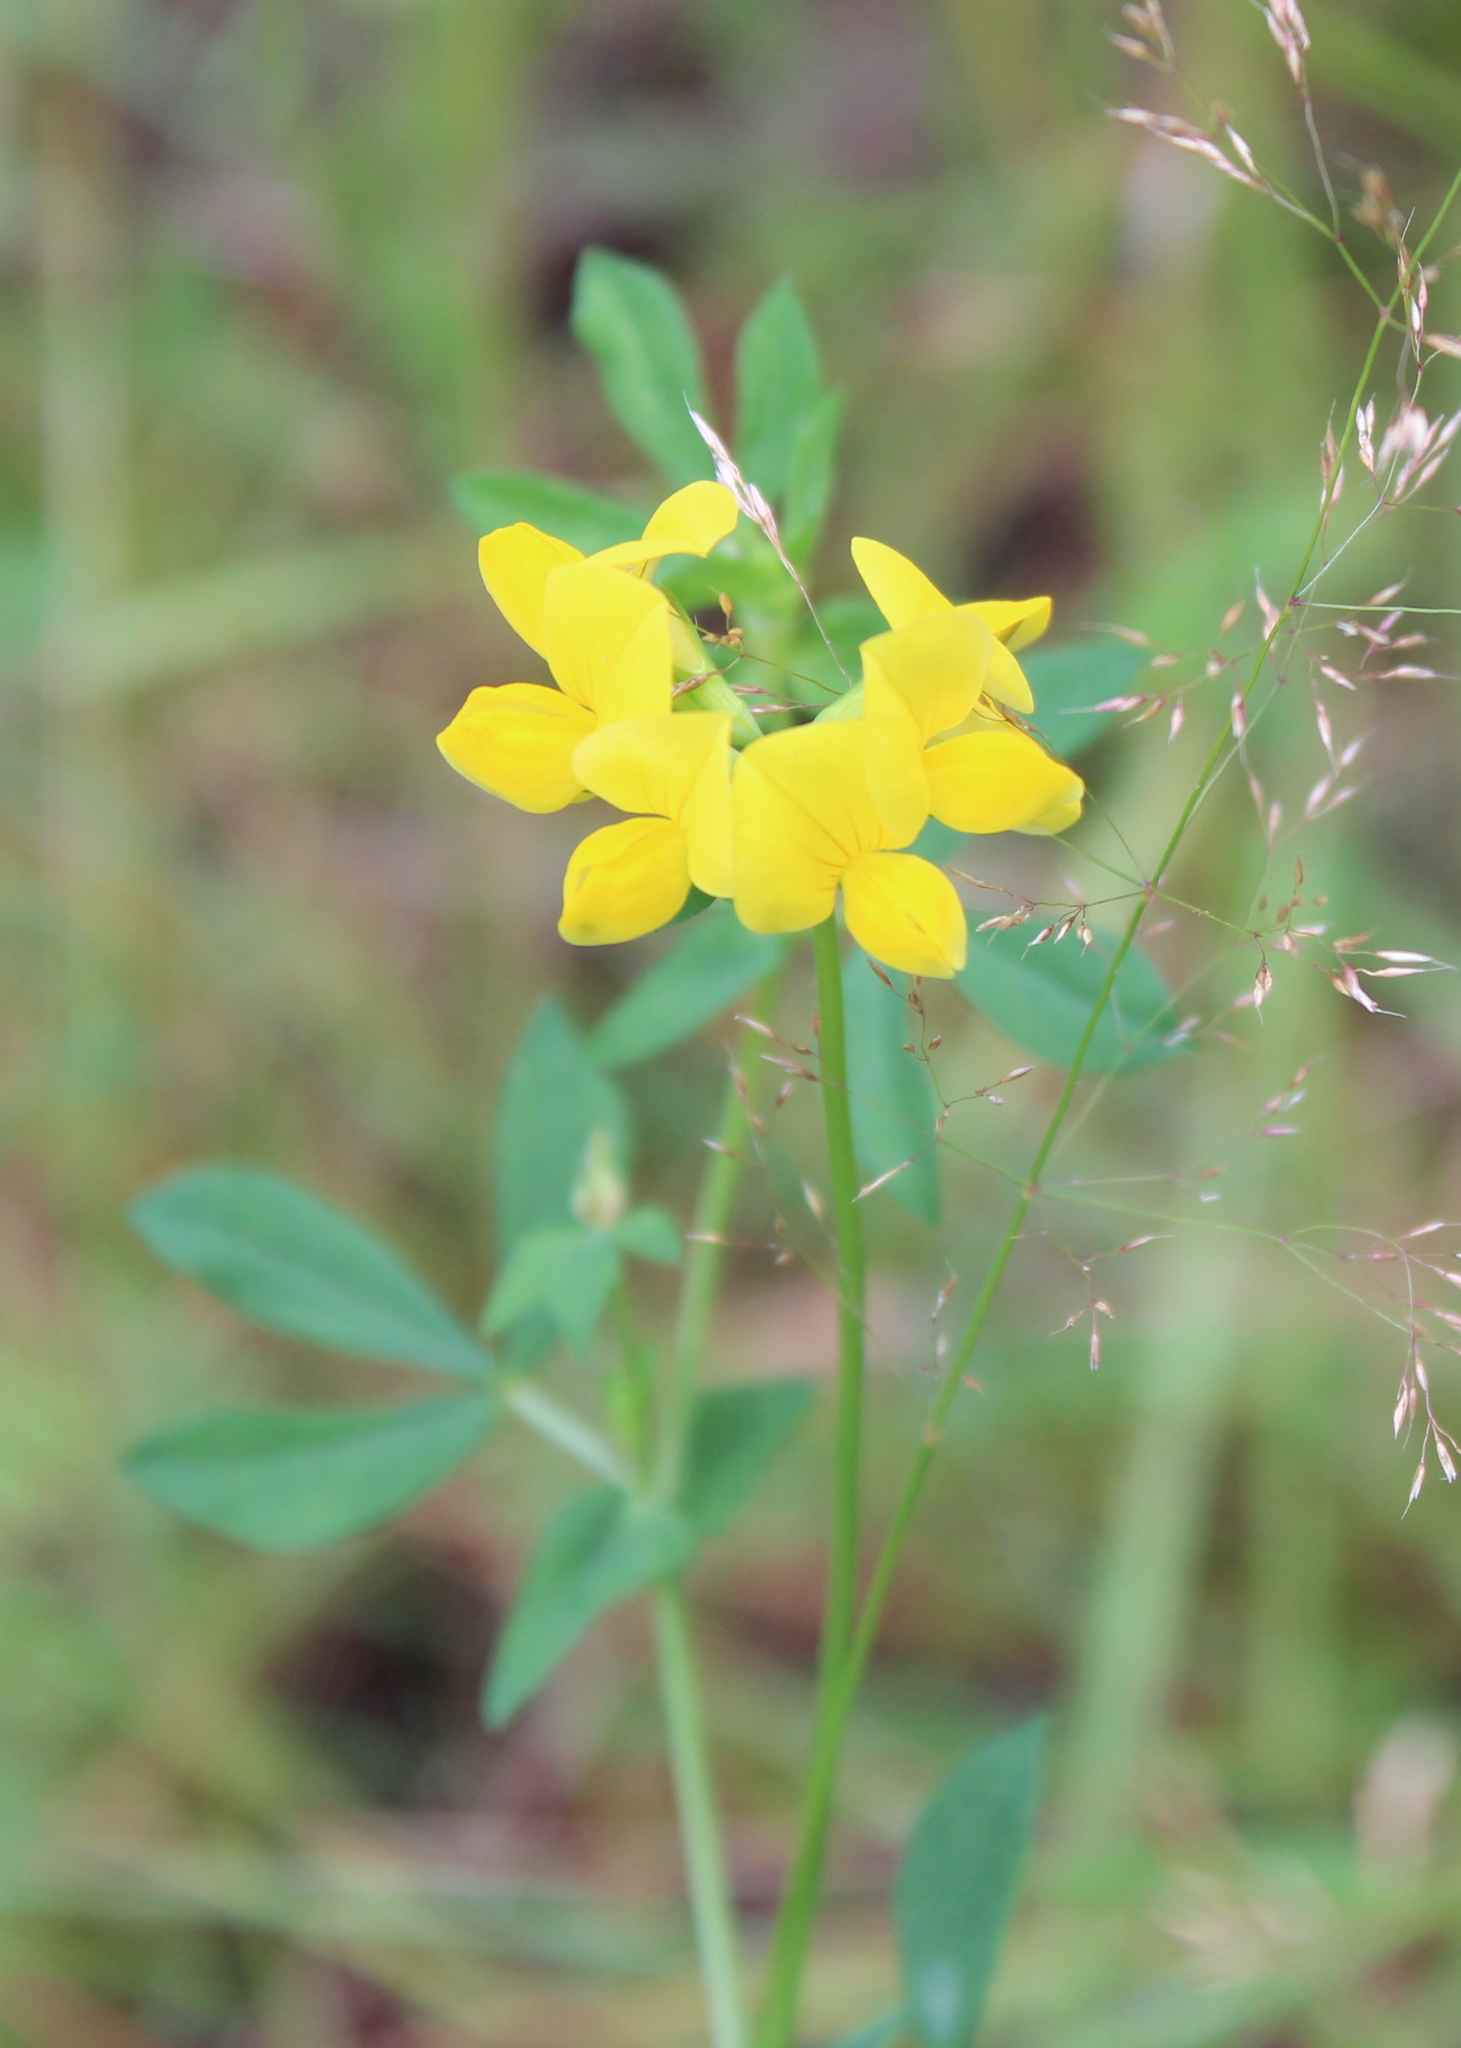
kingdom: Plantae
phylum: Tracheophyta
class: Magnoliopsida
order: Fabales
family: Fabaceae
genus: Lotus
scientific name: Lotus corniculatus
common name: Common bird's-foot-trefoil
